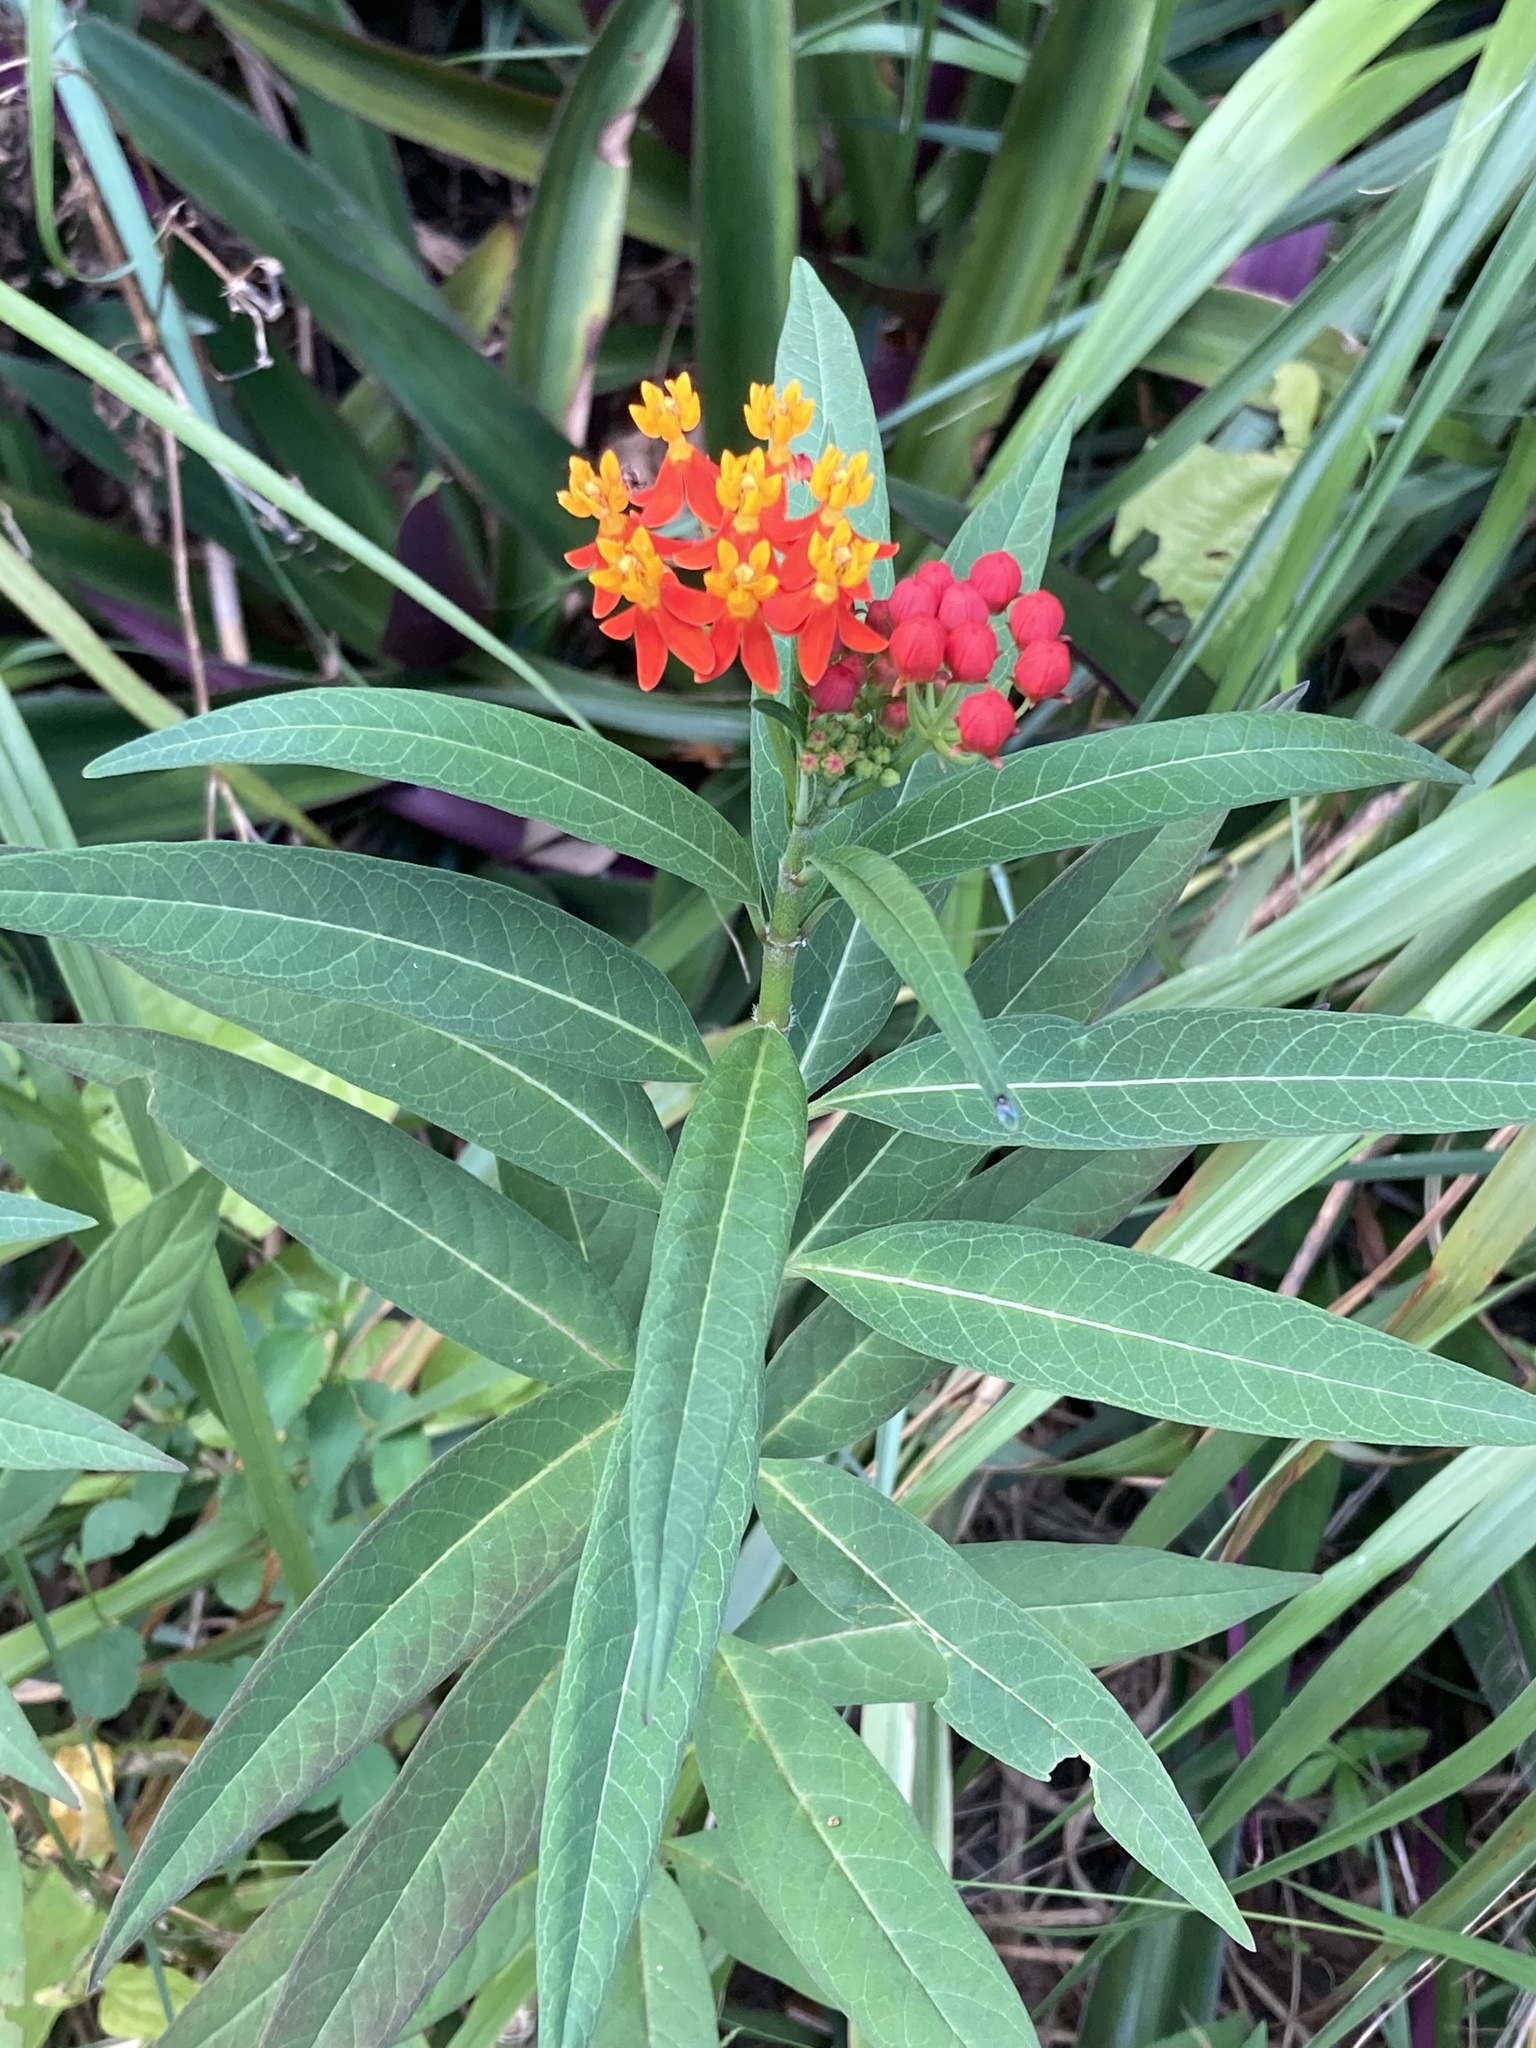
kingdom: Plantae
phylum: Tracheophyta
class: Magnoliopsida
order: Gentianales
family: Apocynaceae
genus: Asclepias
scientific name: Asclepias curassavica
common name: Bloodflower
